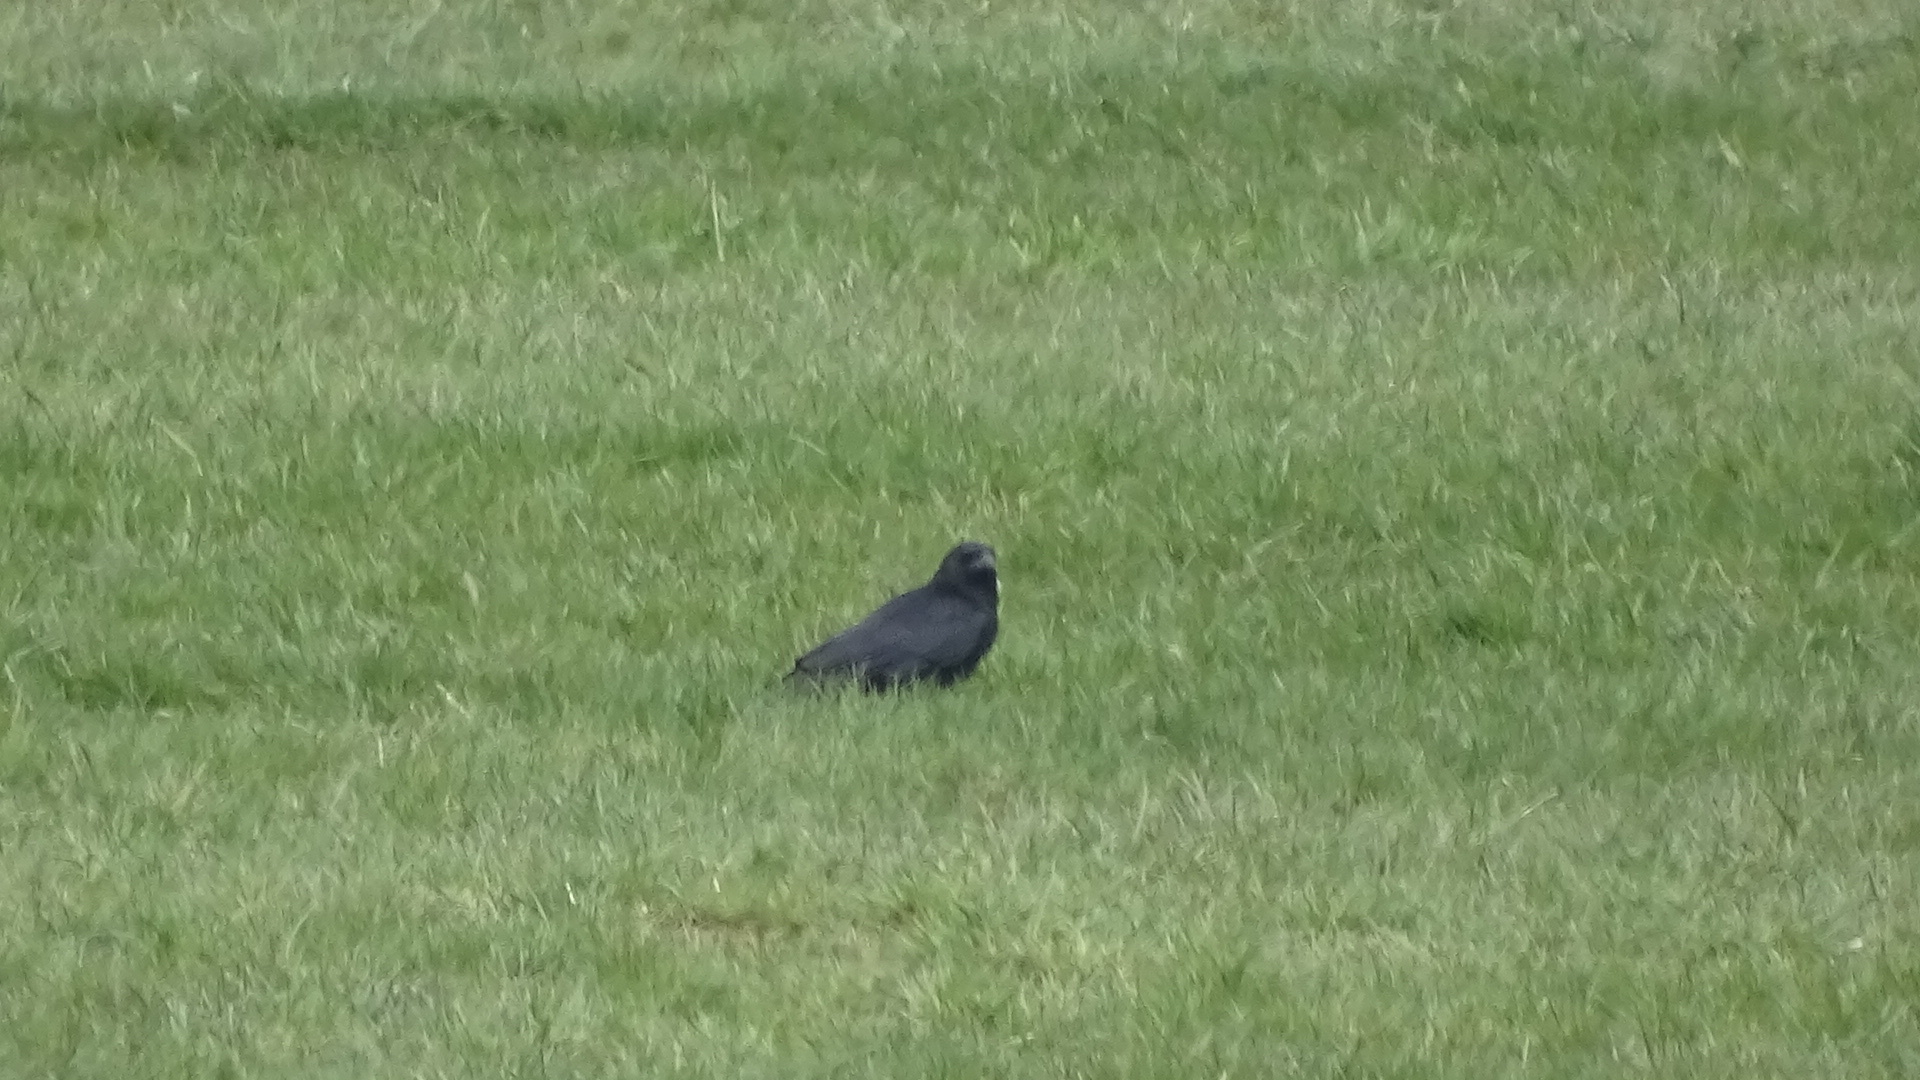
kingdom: Animalia
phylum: Chordata
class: Aves
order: Passeriformes
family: Corvidae
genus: Corvus
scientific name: Corvus corone
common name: Carrion crow
